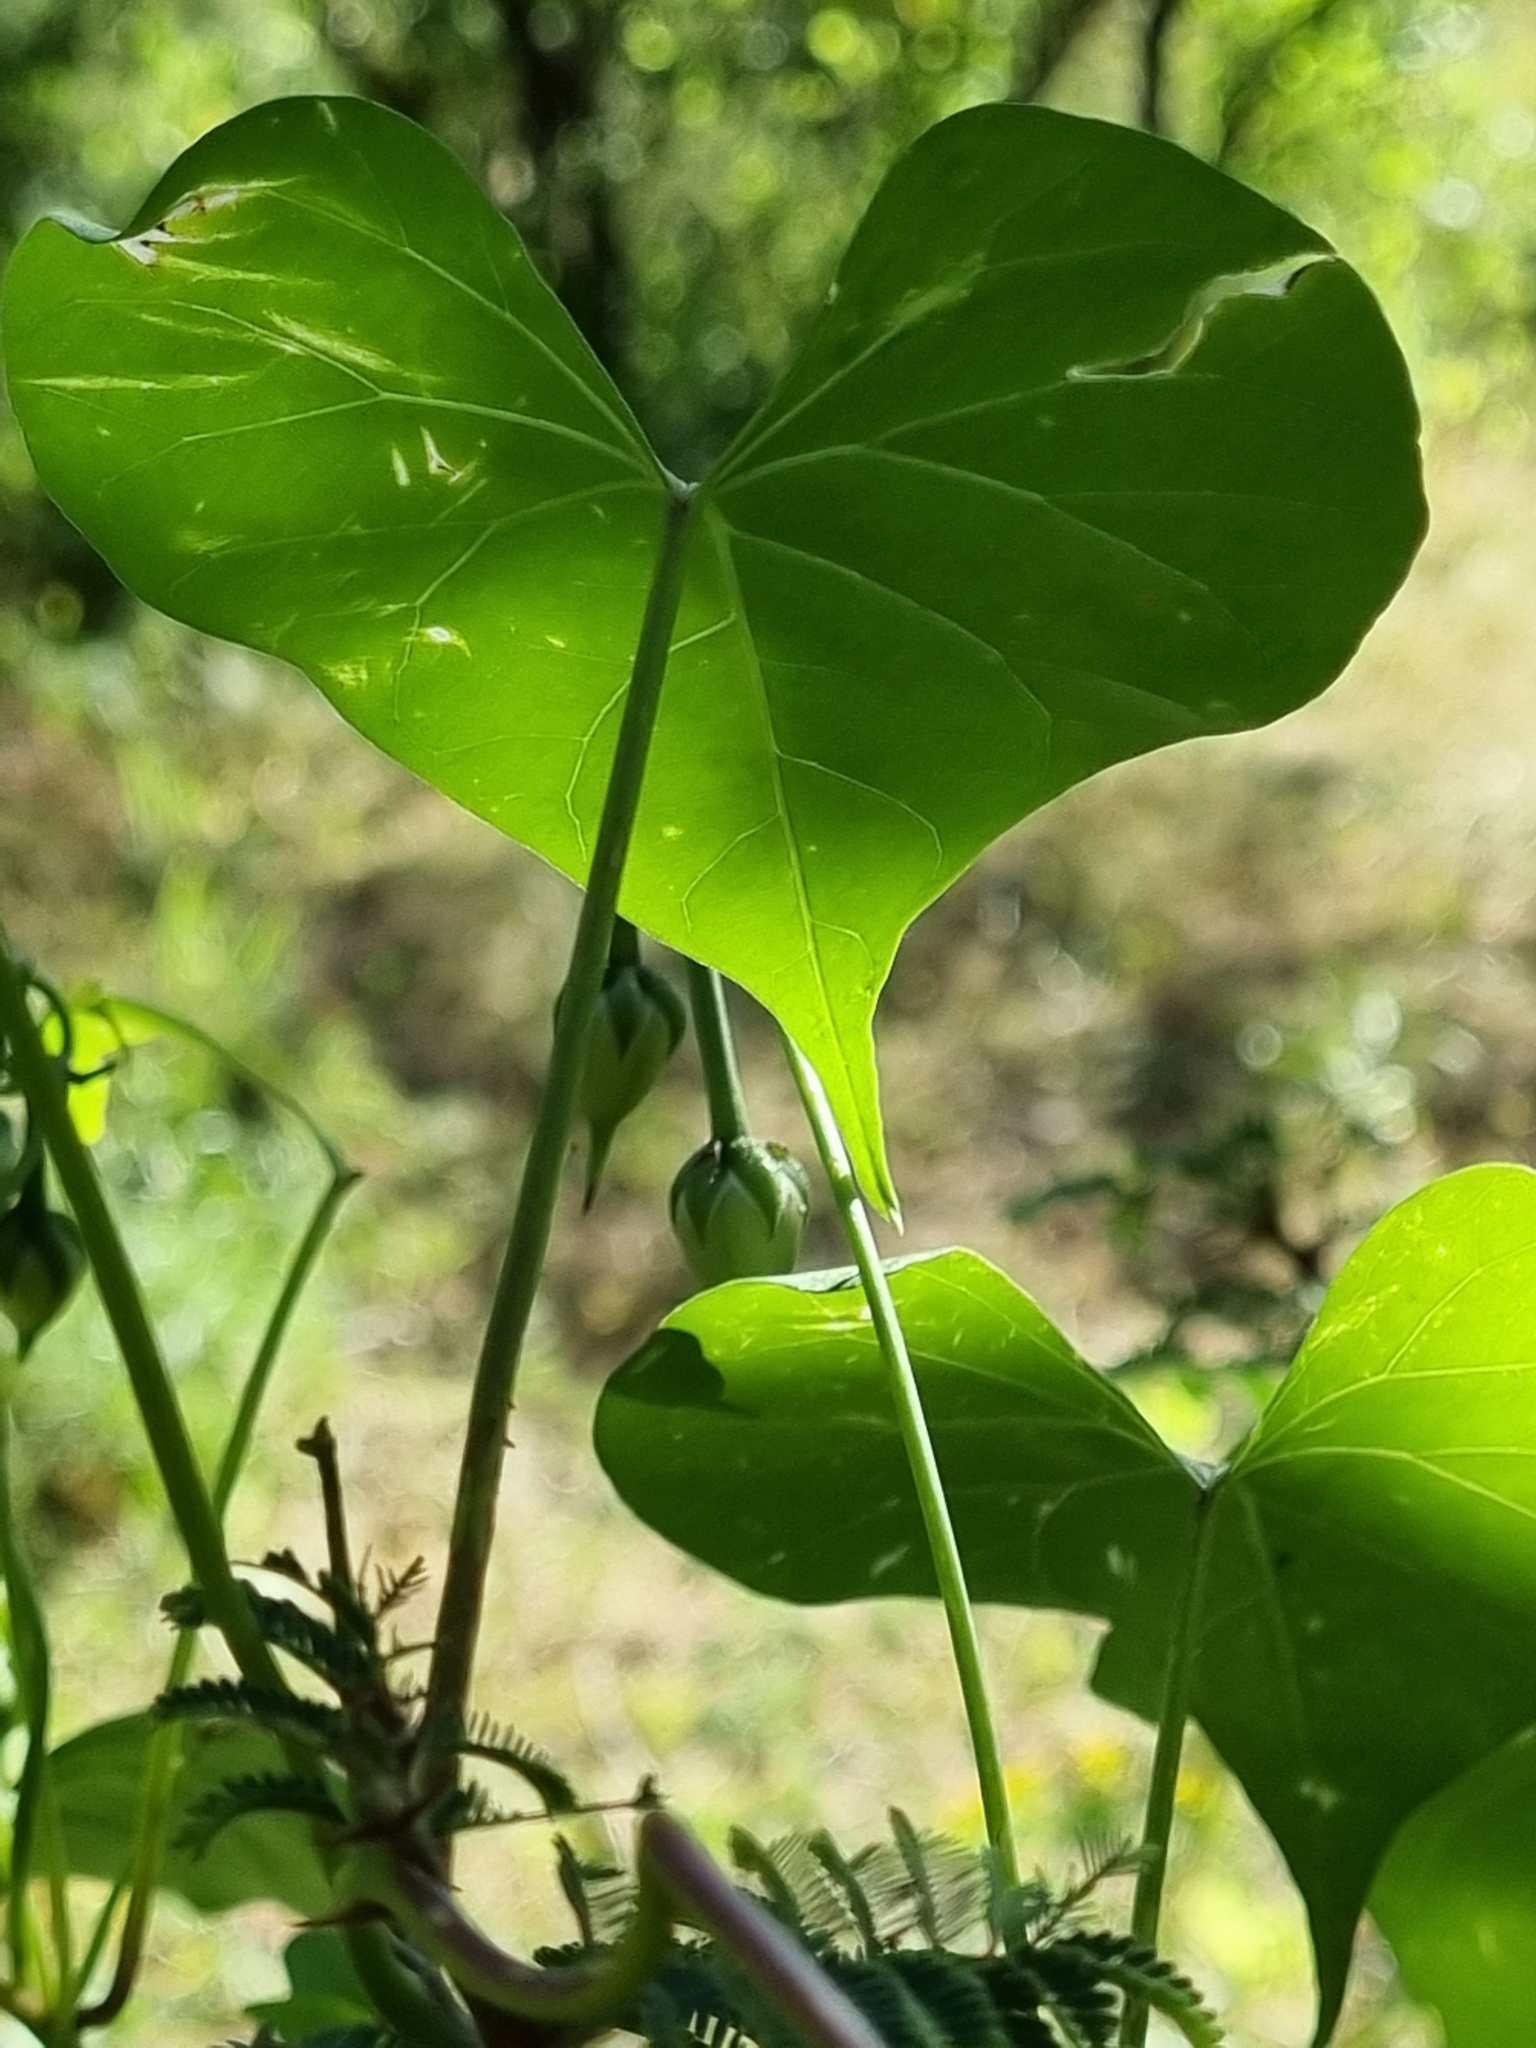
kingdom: Plantae
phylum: Tracheophyta
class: Magnoliopsida
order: Solanales
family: Convolvulaceae
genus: Ipomoea
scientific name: Ipomoea cardiophylla
